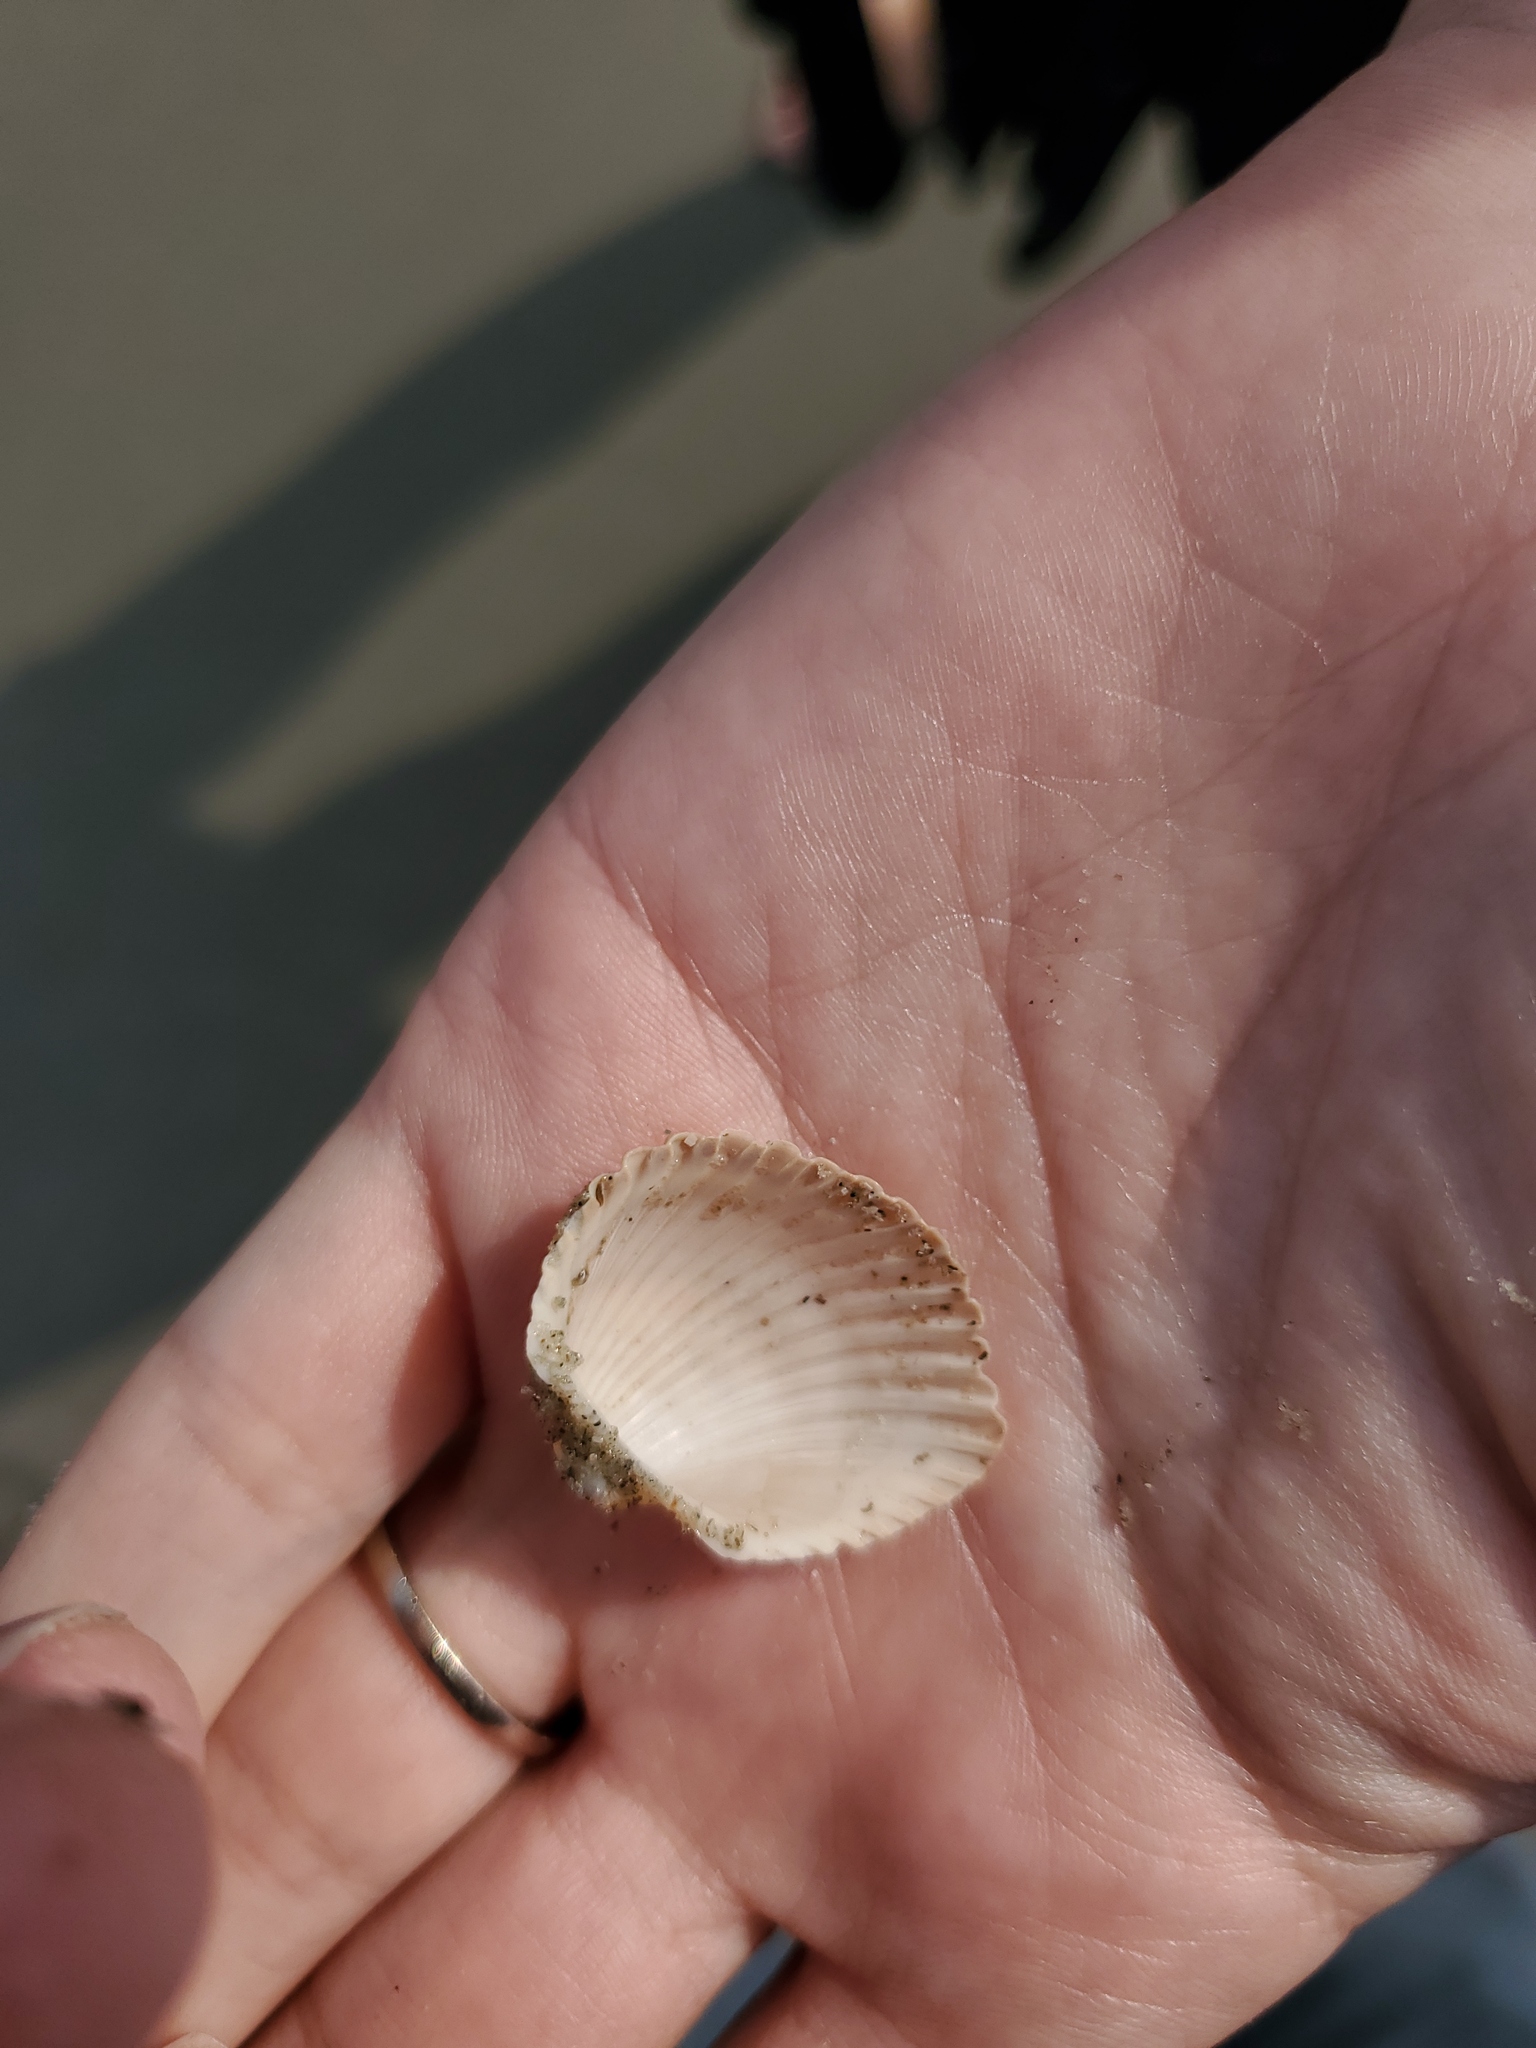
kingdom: Animalia
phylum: Mollusca
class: Bivalvia
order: Arcida
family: Arcidae
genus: Anadara
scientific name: Anadara brasiliana
